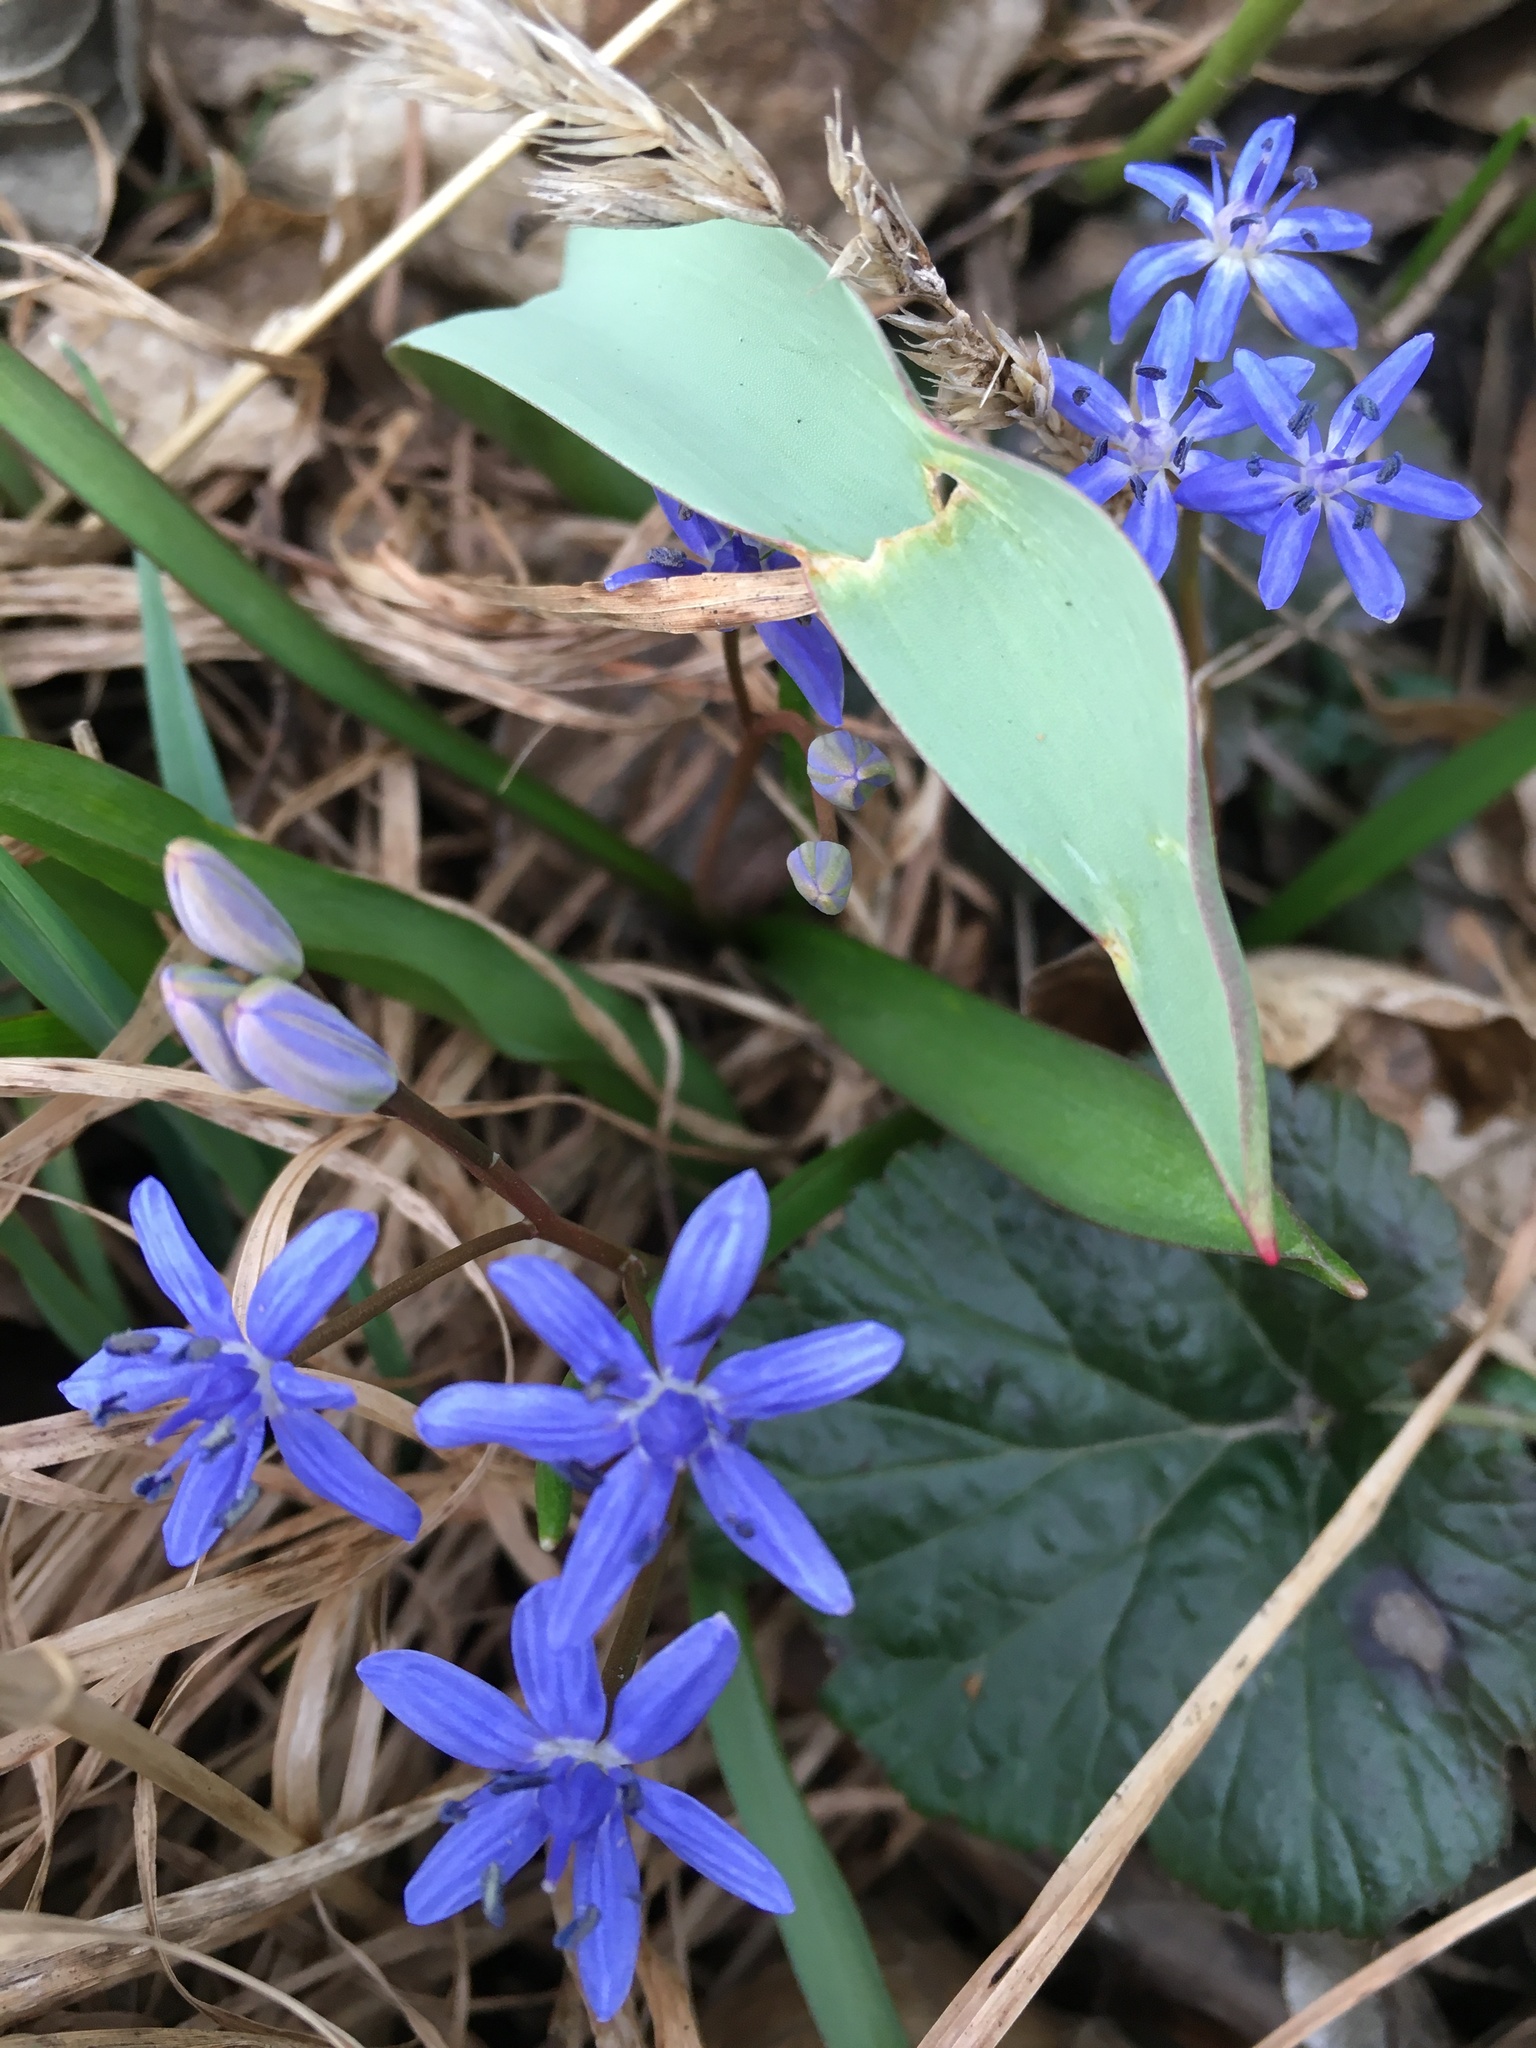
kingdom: Plantae
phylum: Tracheophyta
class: Liliopsida
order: Asparagales
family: Asparagaceae
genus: Scilla
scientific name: Scilla vindobonensis
